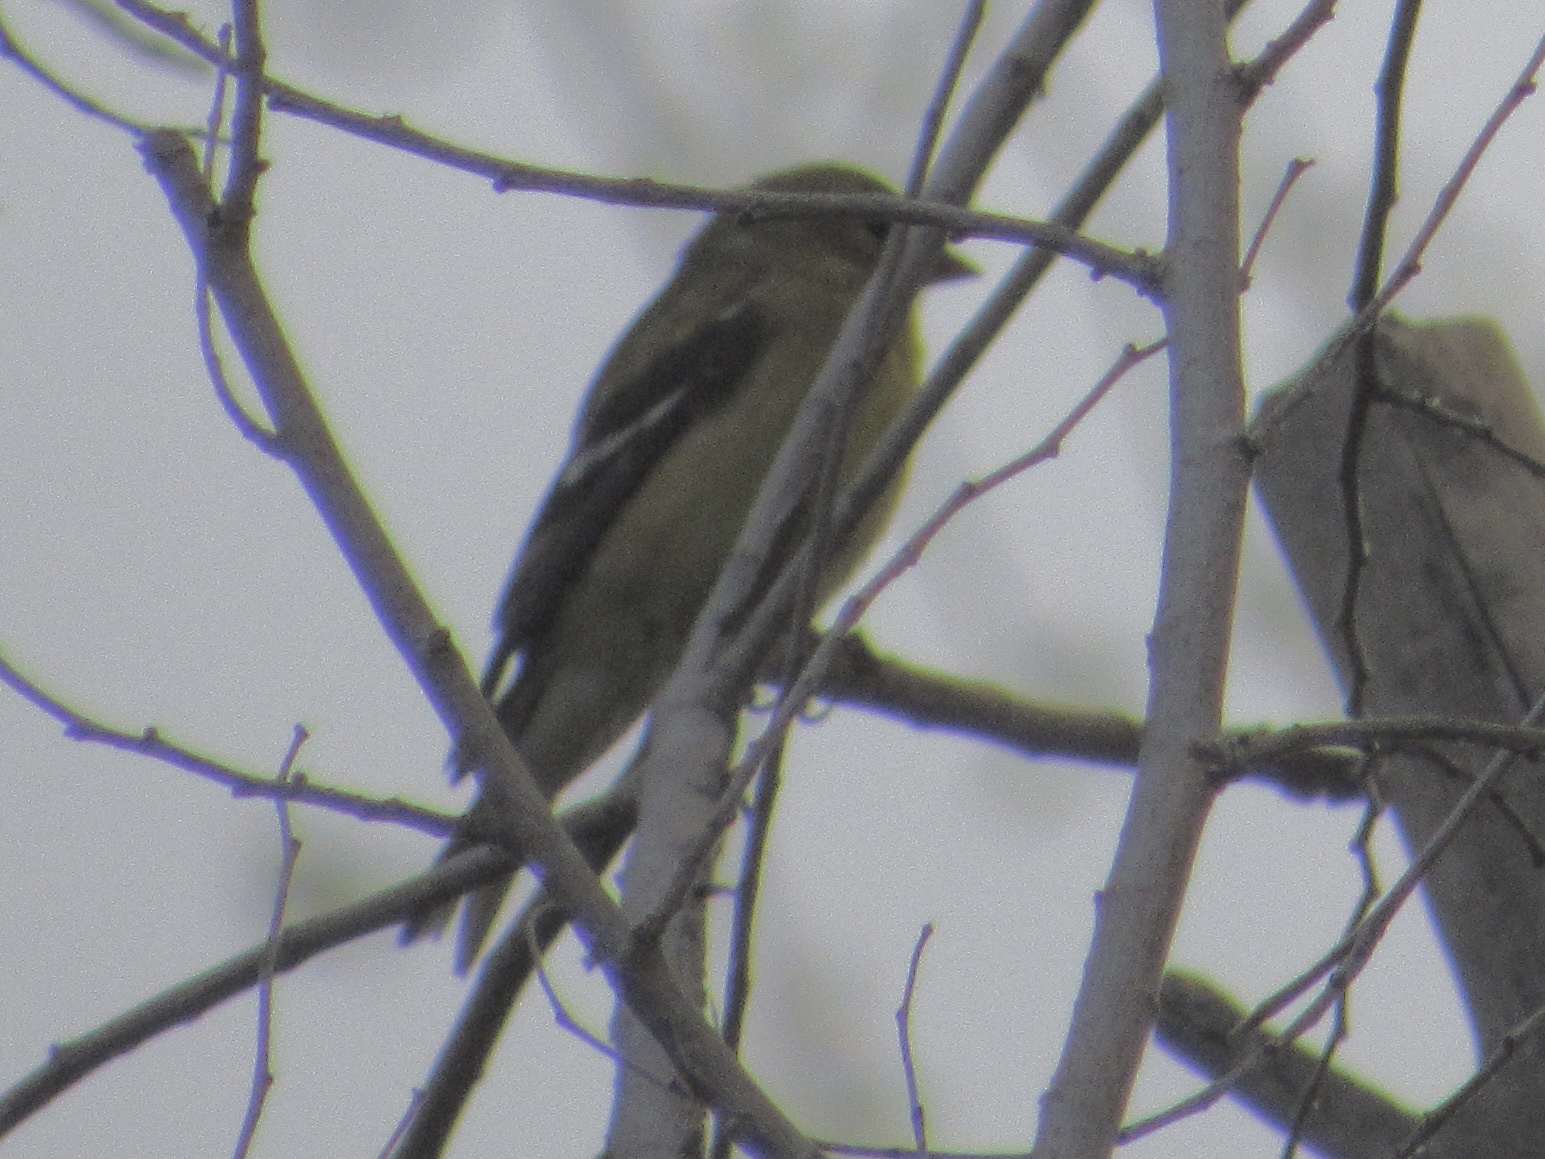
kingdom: Animalia
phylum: Chordata
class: Aves
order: Passeriformes
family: Fringillidae
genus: Spinus
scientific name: Spinus tristis
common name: American goldfinch
